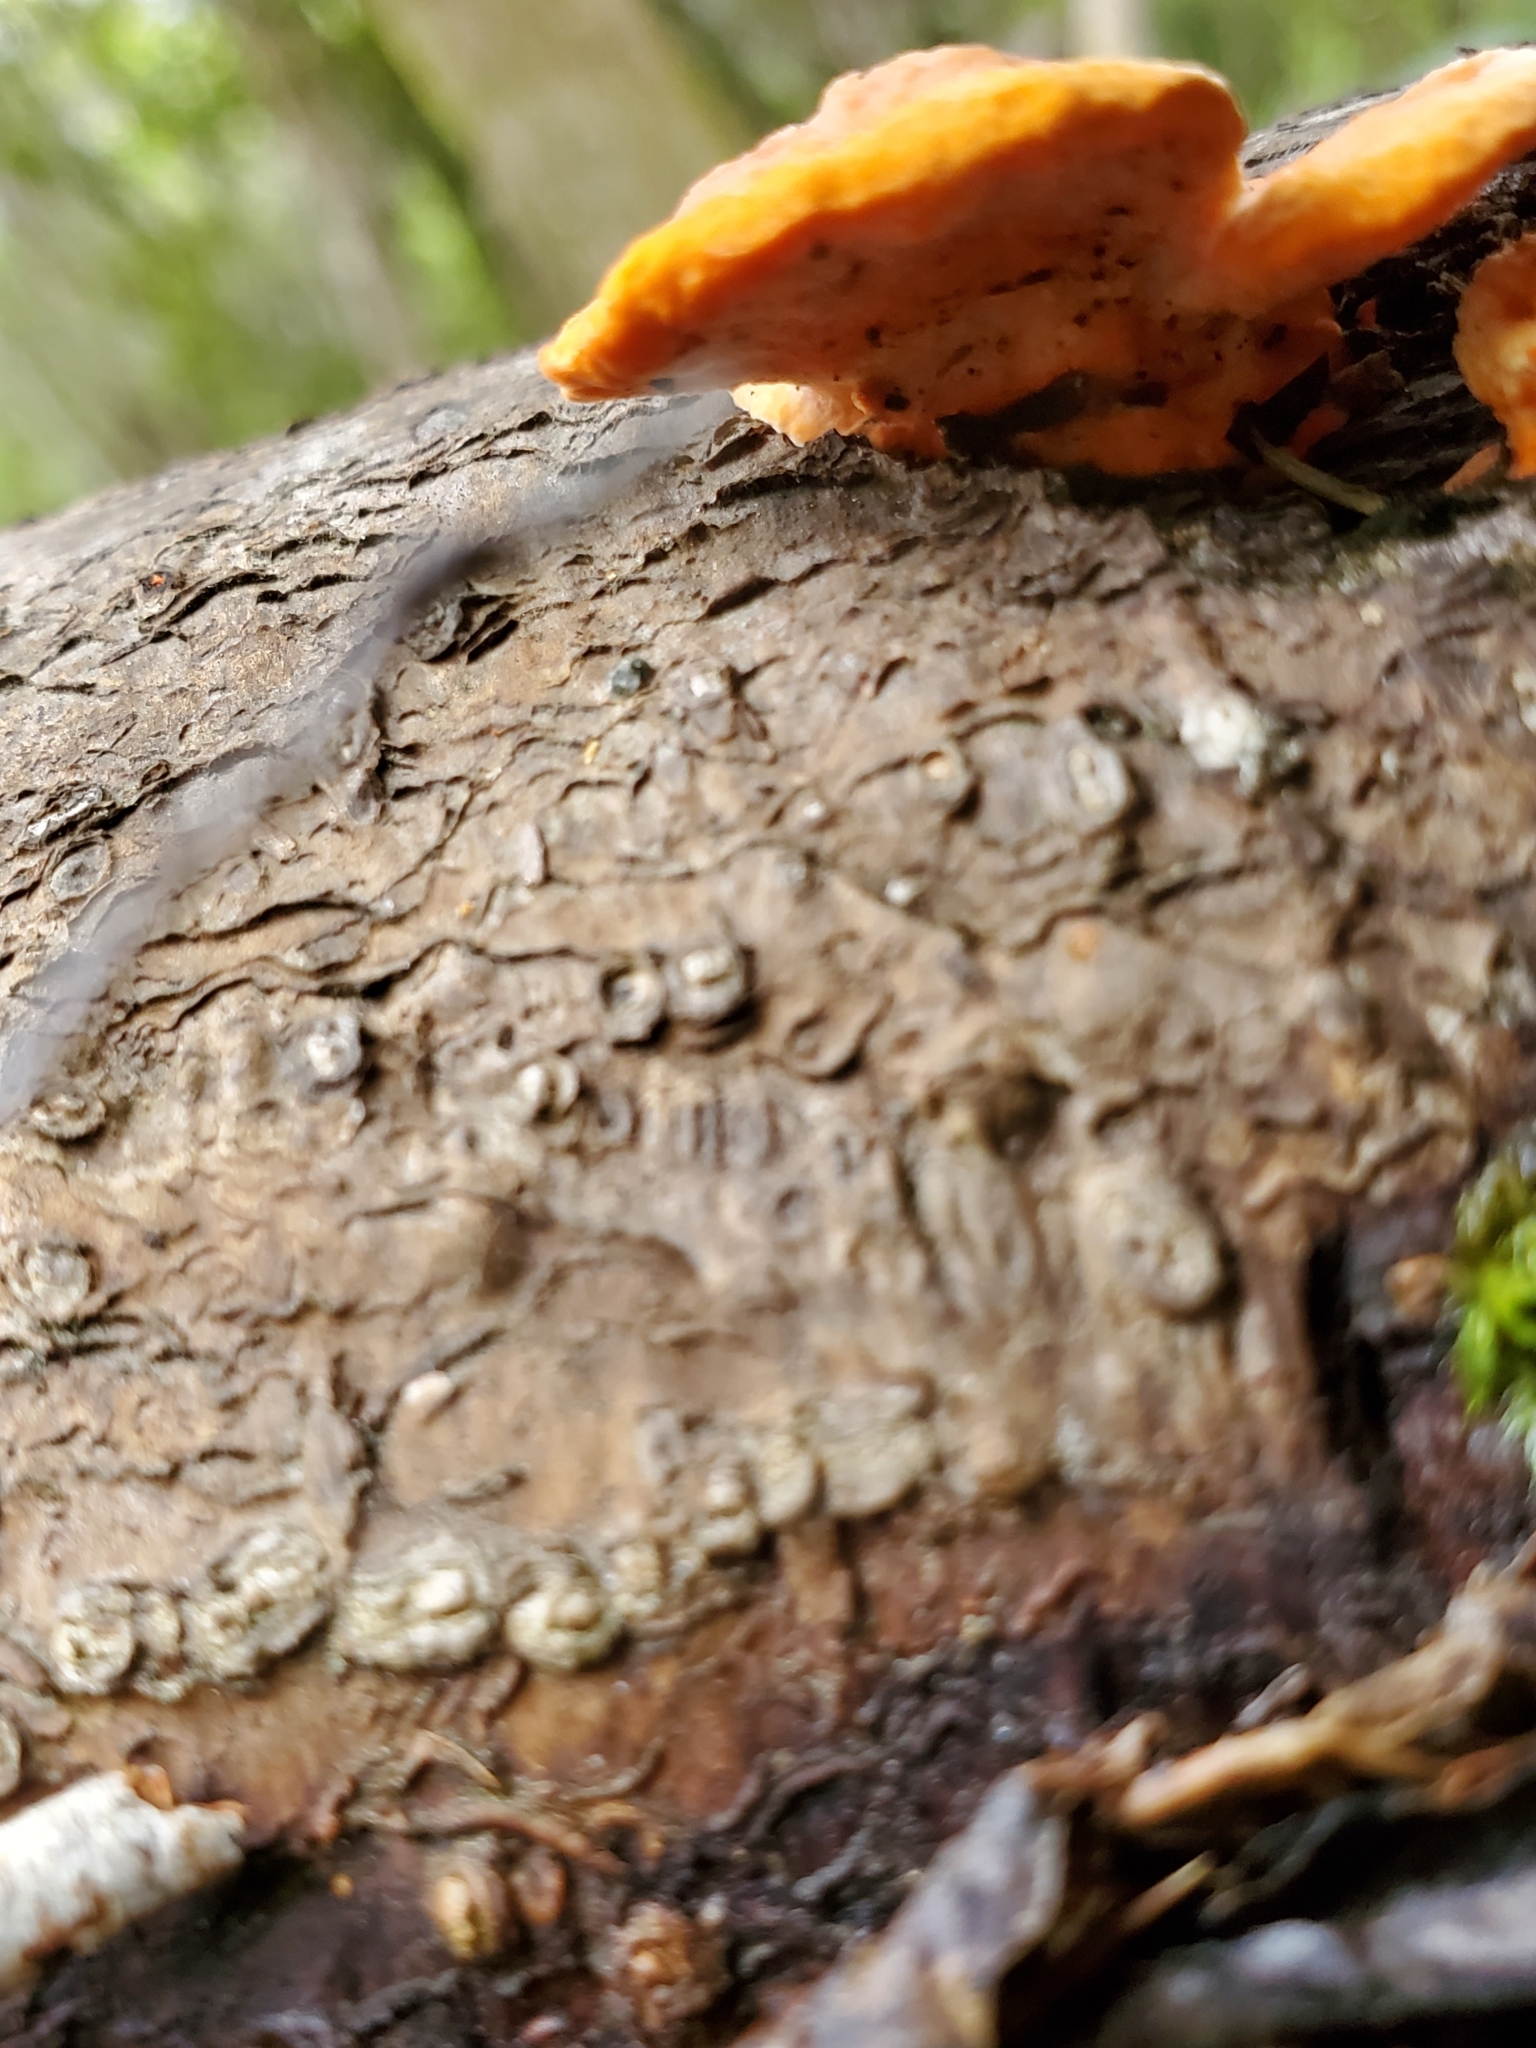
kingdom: Fungi
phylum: Basidiomycota
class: Agaricomycetes
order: Polyporales
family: Polyporaceae
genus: Trametes
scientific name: Trametes coccinea
